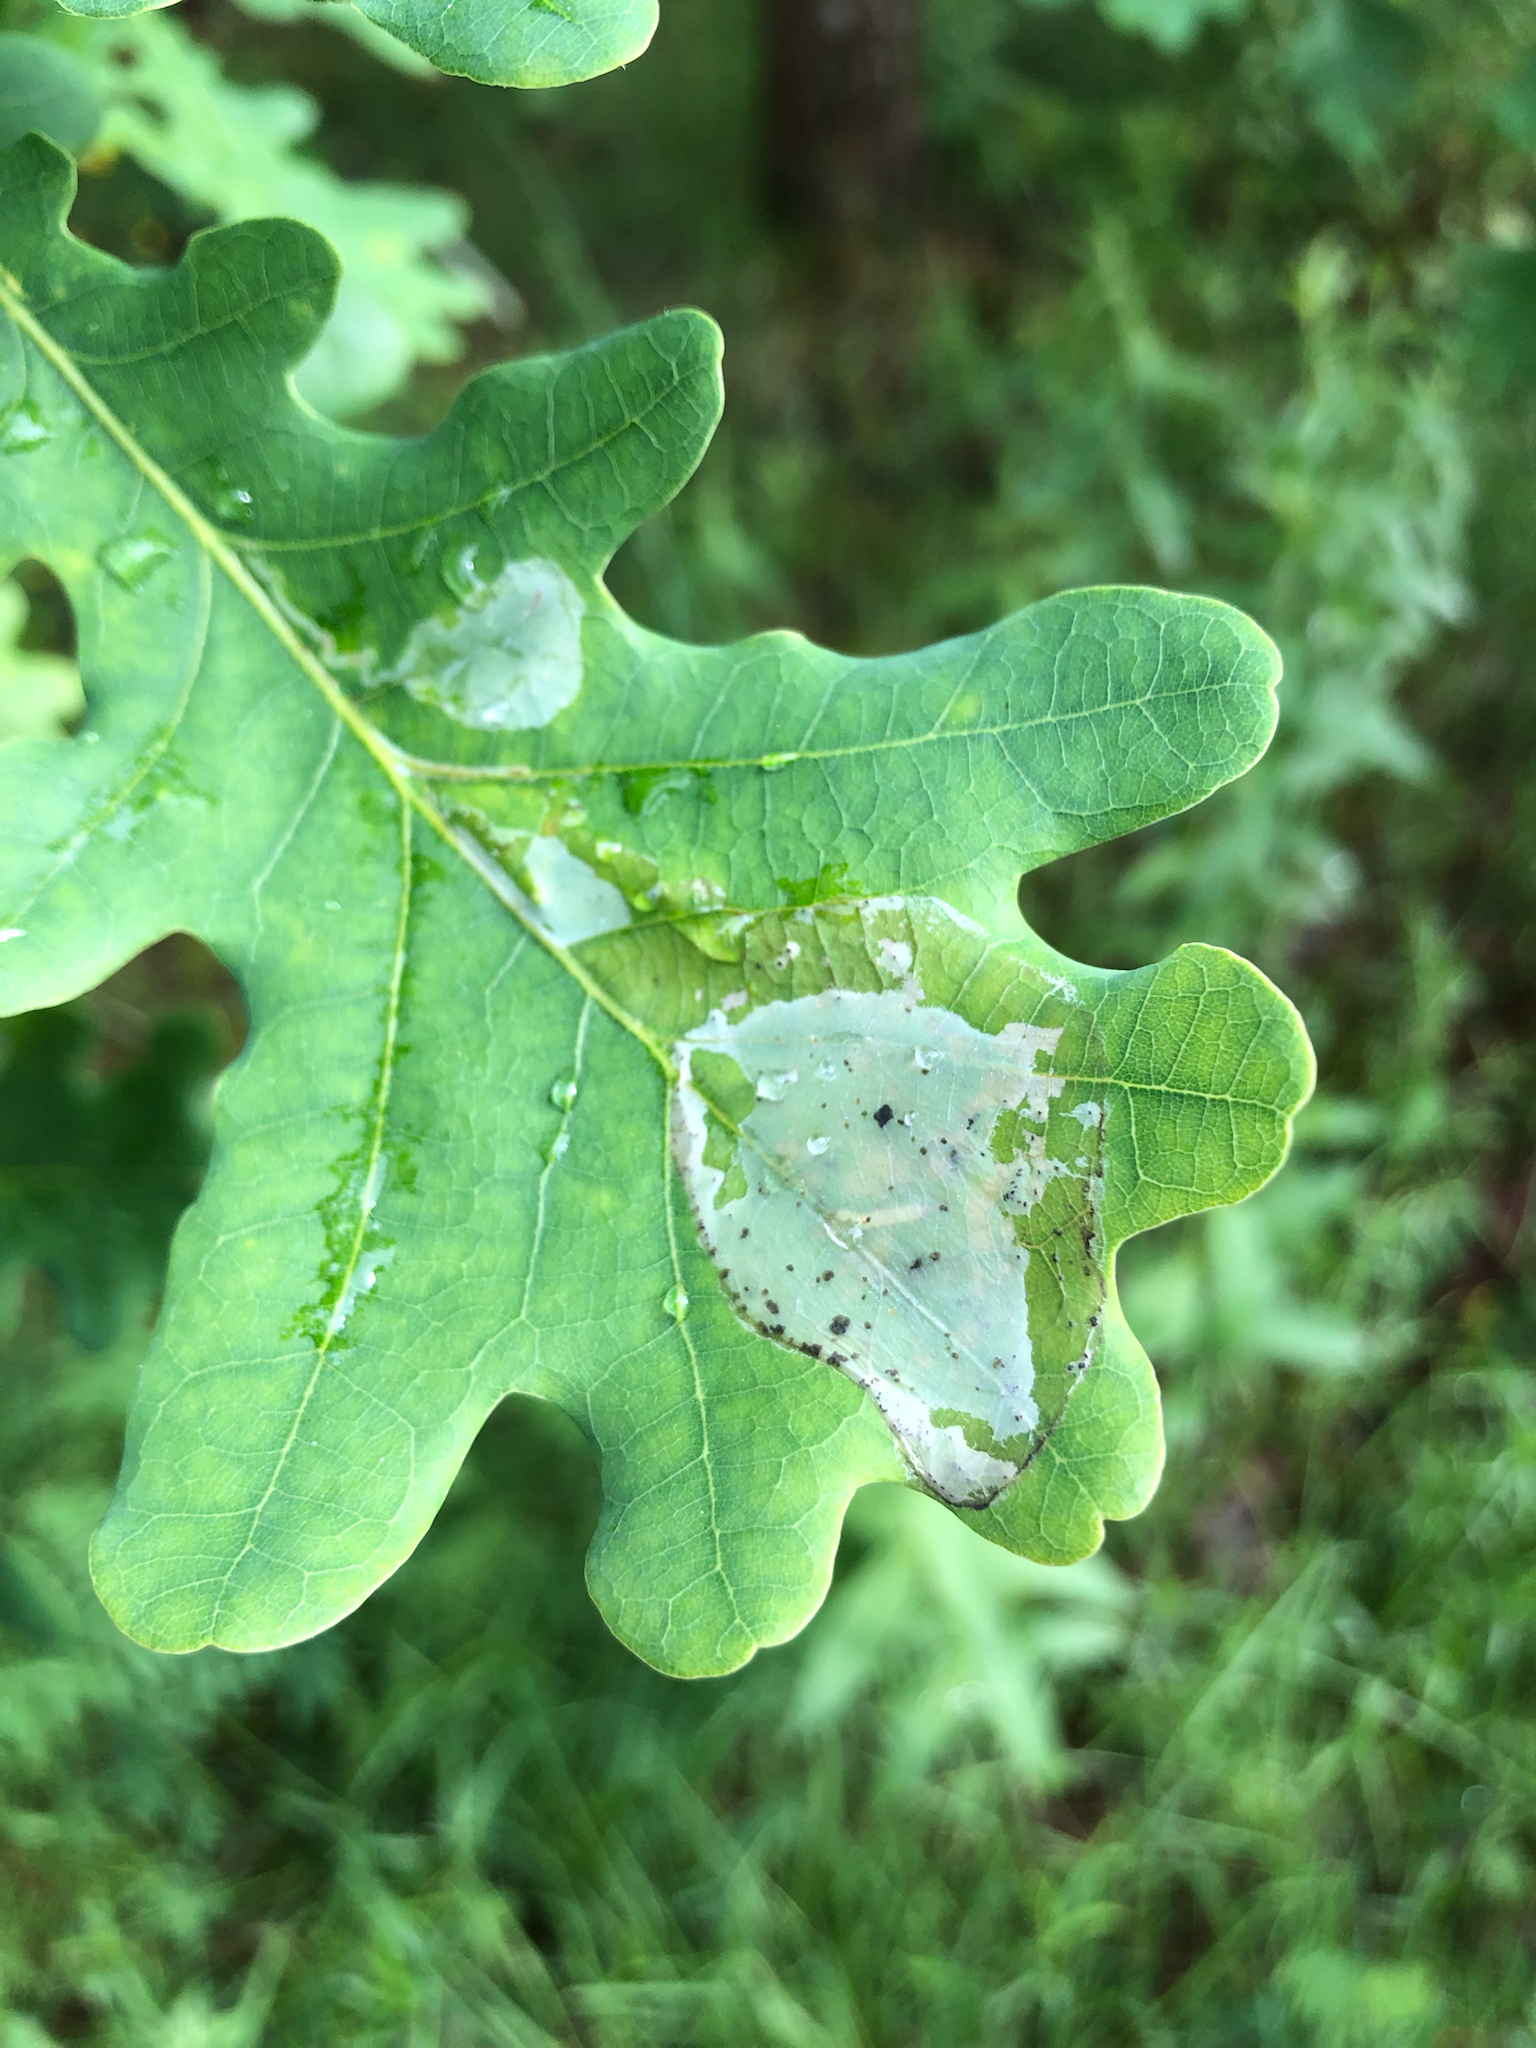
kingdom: Animalia
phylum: Arthropoda
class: Insecta
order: Lepidoptera
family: Gracillariidae
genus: Acrocercops
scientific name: Acrocercops brongniardella
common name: Brown oak slender
